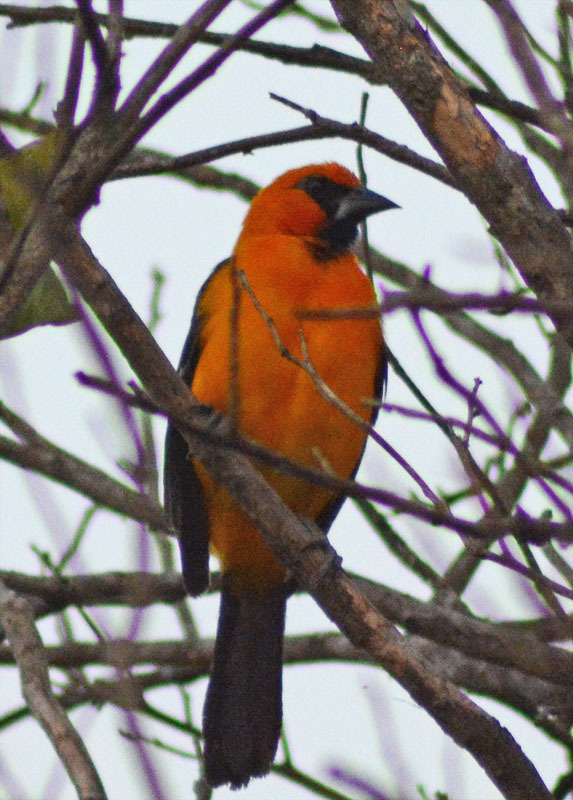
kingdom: Animalia
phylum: Chordata
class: Aves
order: Passeriformes
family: Icteridae
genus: Icterus
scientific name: Icterus gularis
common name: Altamira oriole
